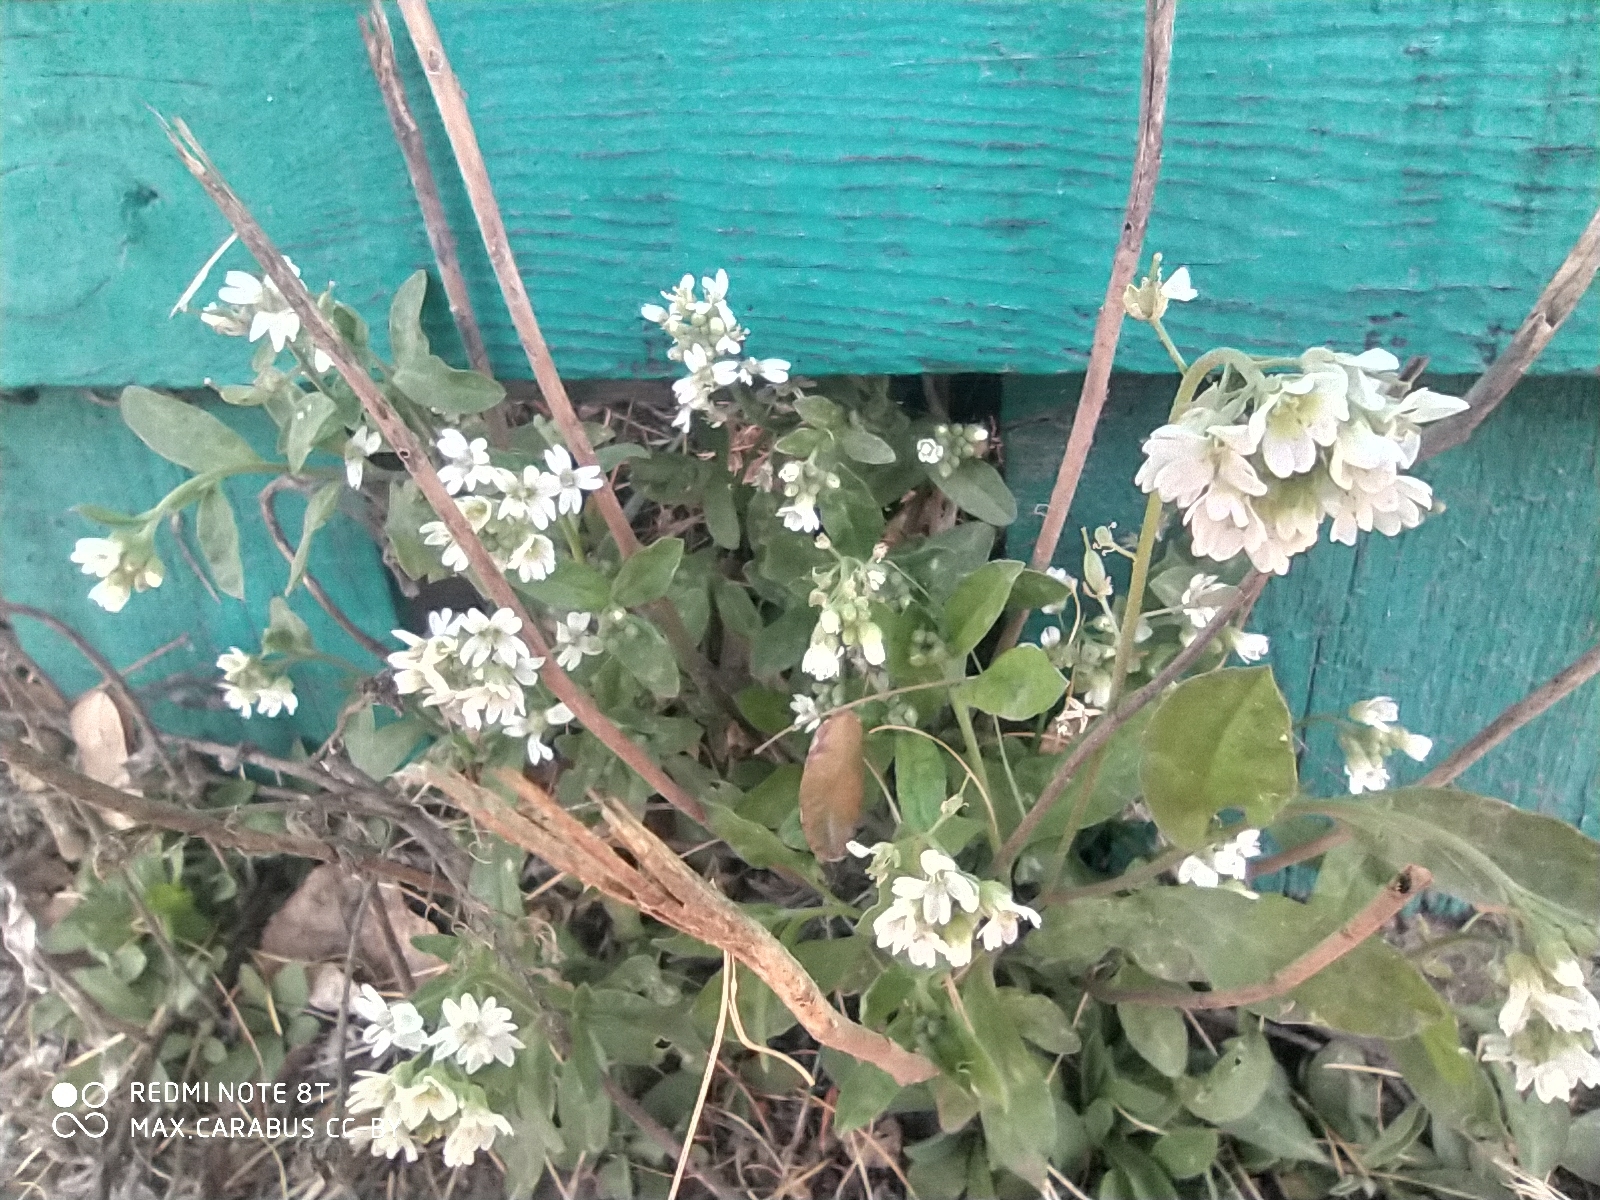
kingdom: Plantae
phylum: Tracheophyta
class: Magnoliopsida
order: Brassicales
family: Brassicaceae
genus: Berteroa
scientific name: Berteroa incana
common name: Hoary alison
